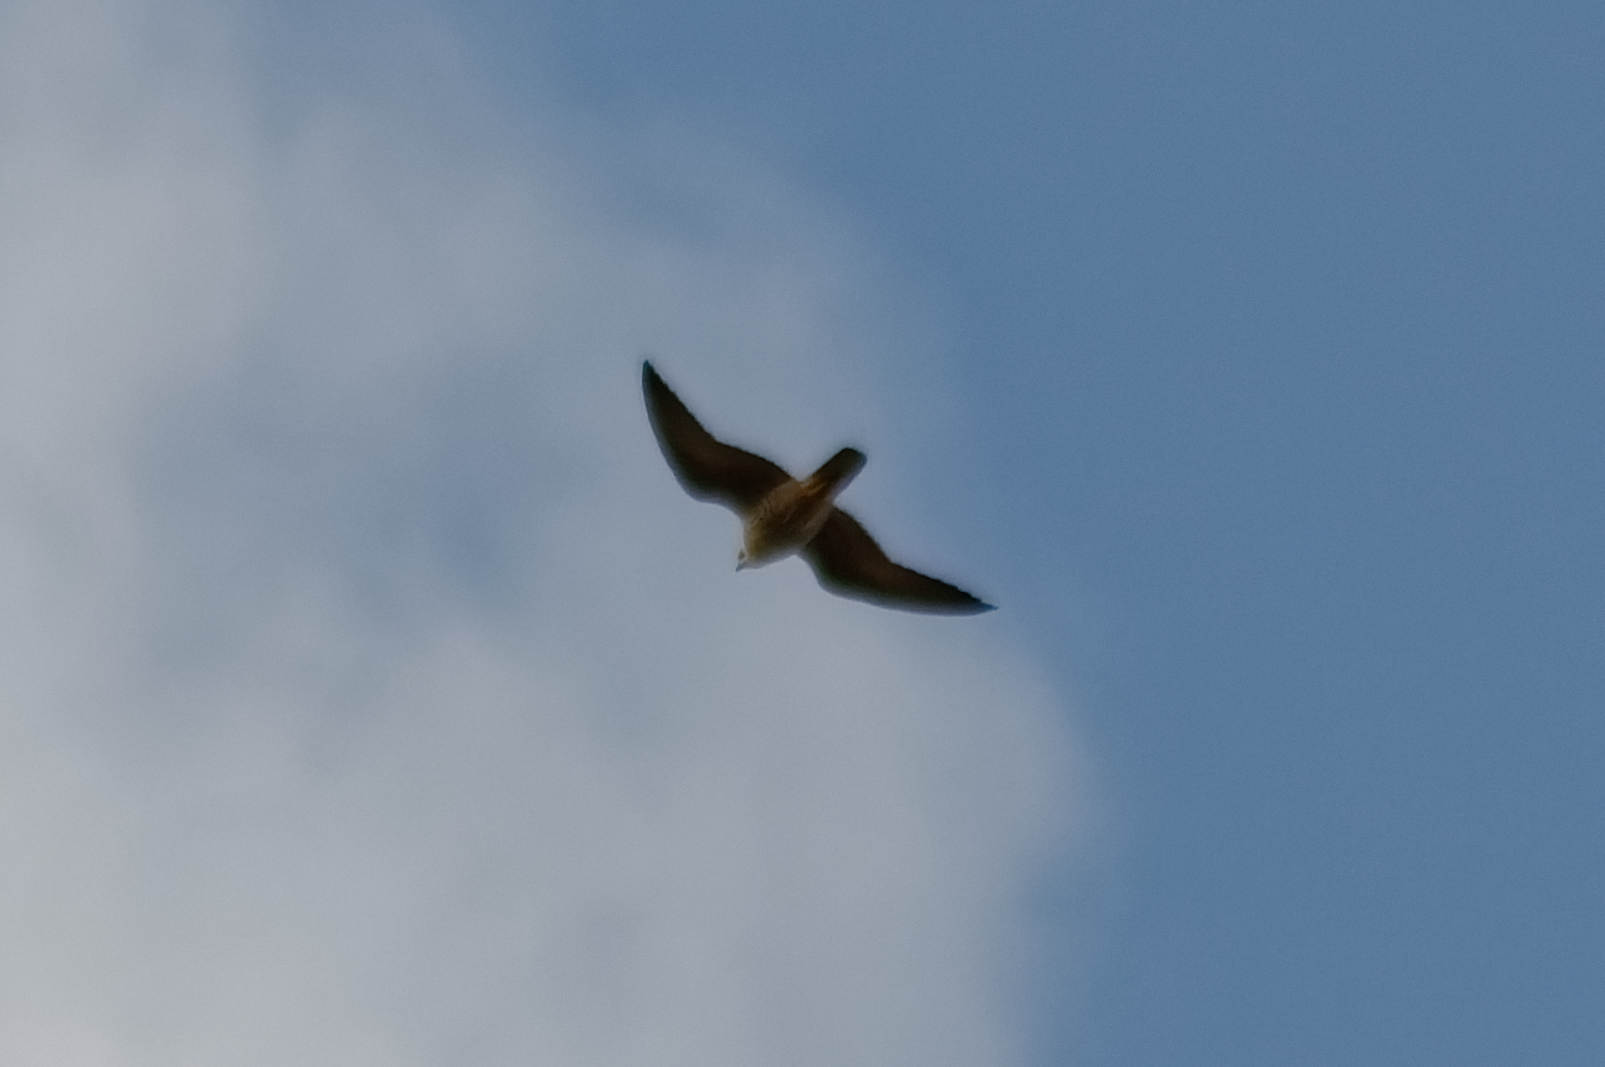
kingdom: Animalia
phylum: Chordata
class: Aves
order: Accipitriformes
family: Accipitridae
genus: Buteo
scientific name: Buteo buteo
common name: Common buzzard
